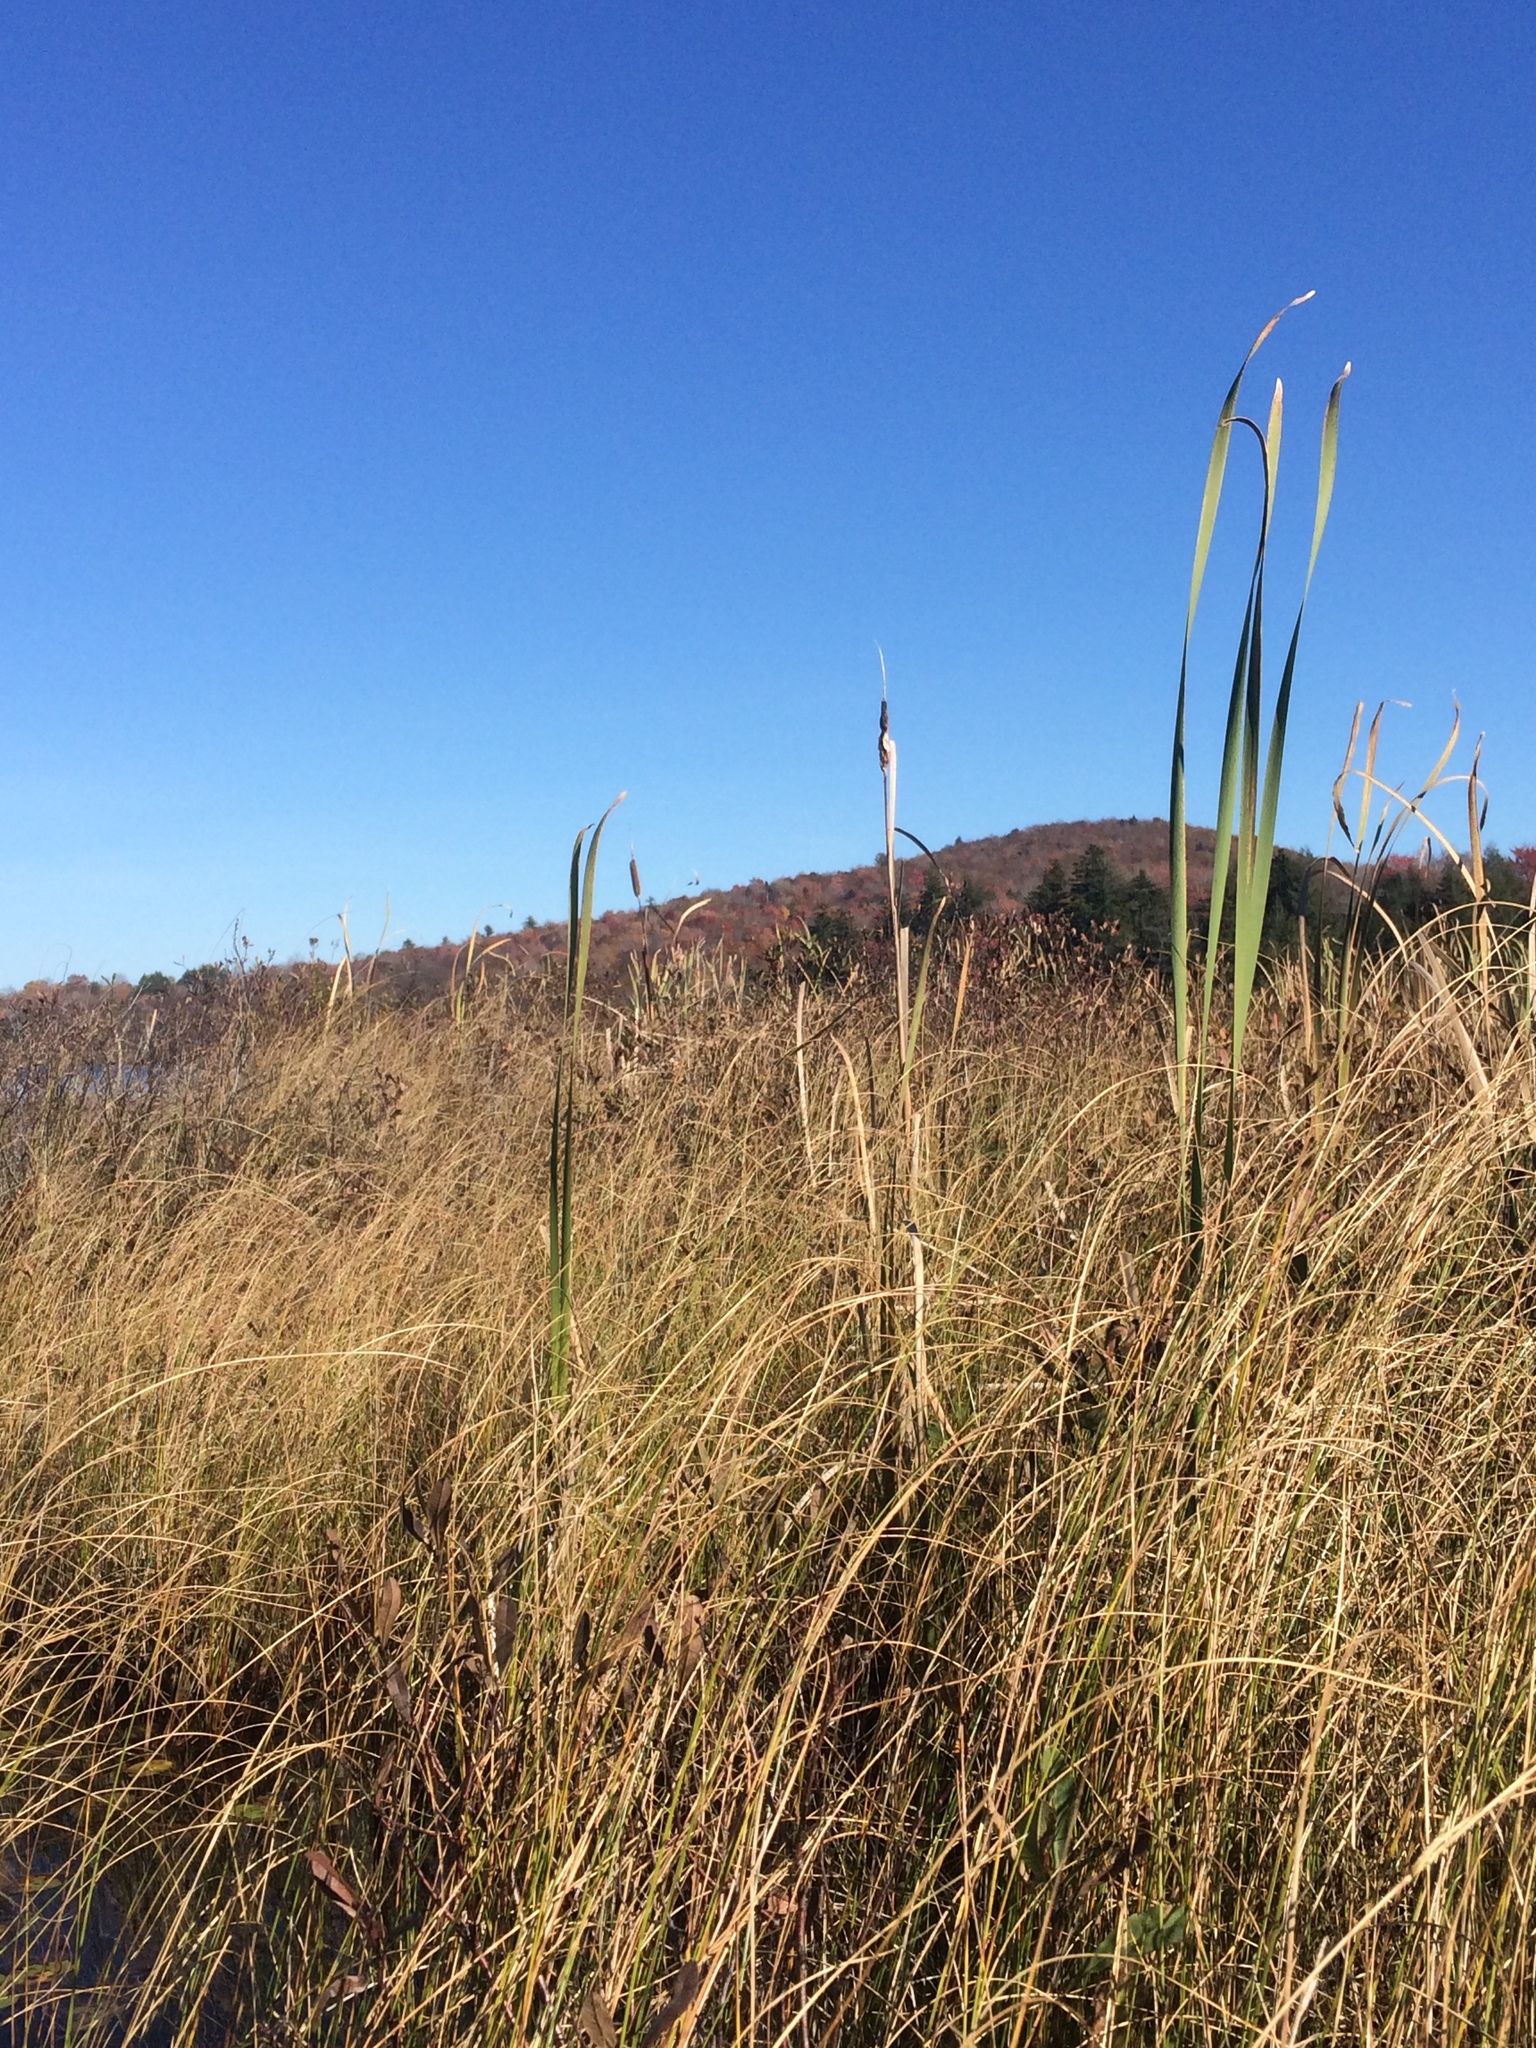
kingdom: Plantae
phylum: Tracheophyta
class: Liliopsida
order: Poales
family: Typhaceae
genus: Typha
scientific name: Typha latifolia
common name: Broadleaf cattail
